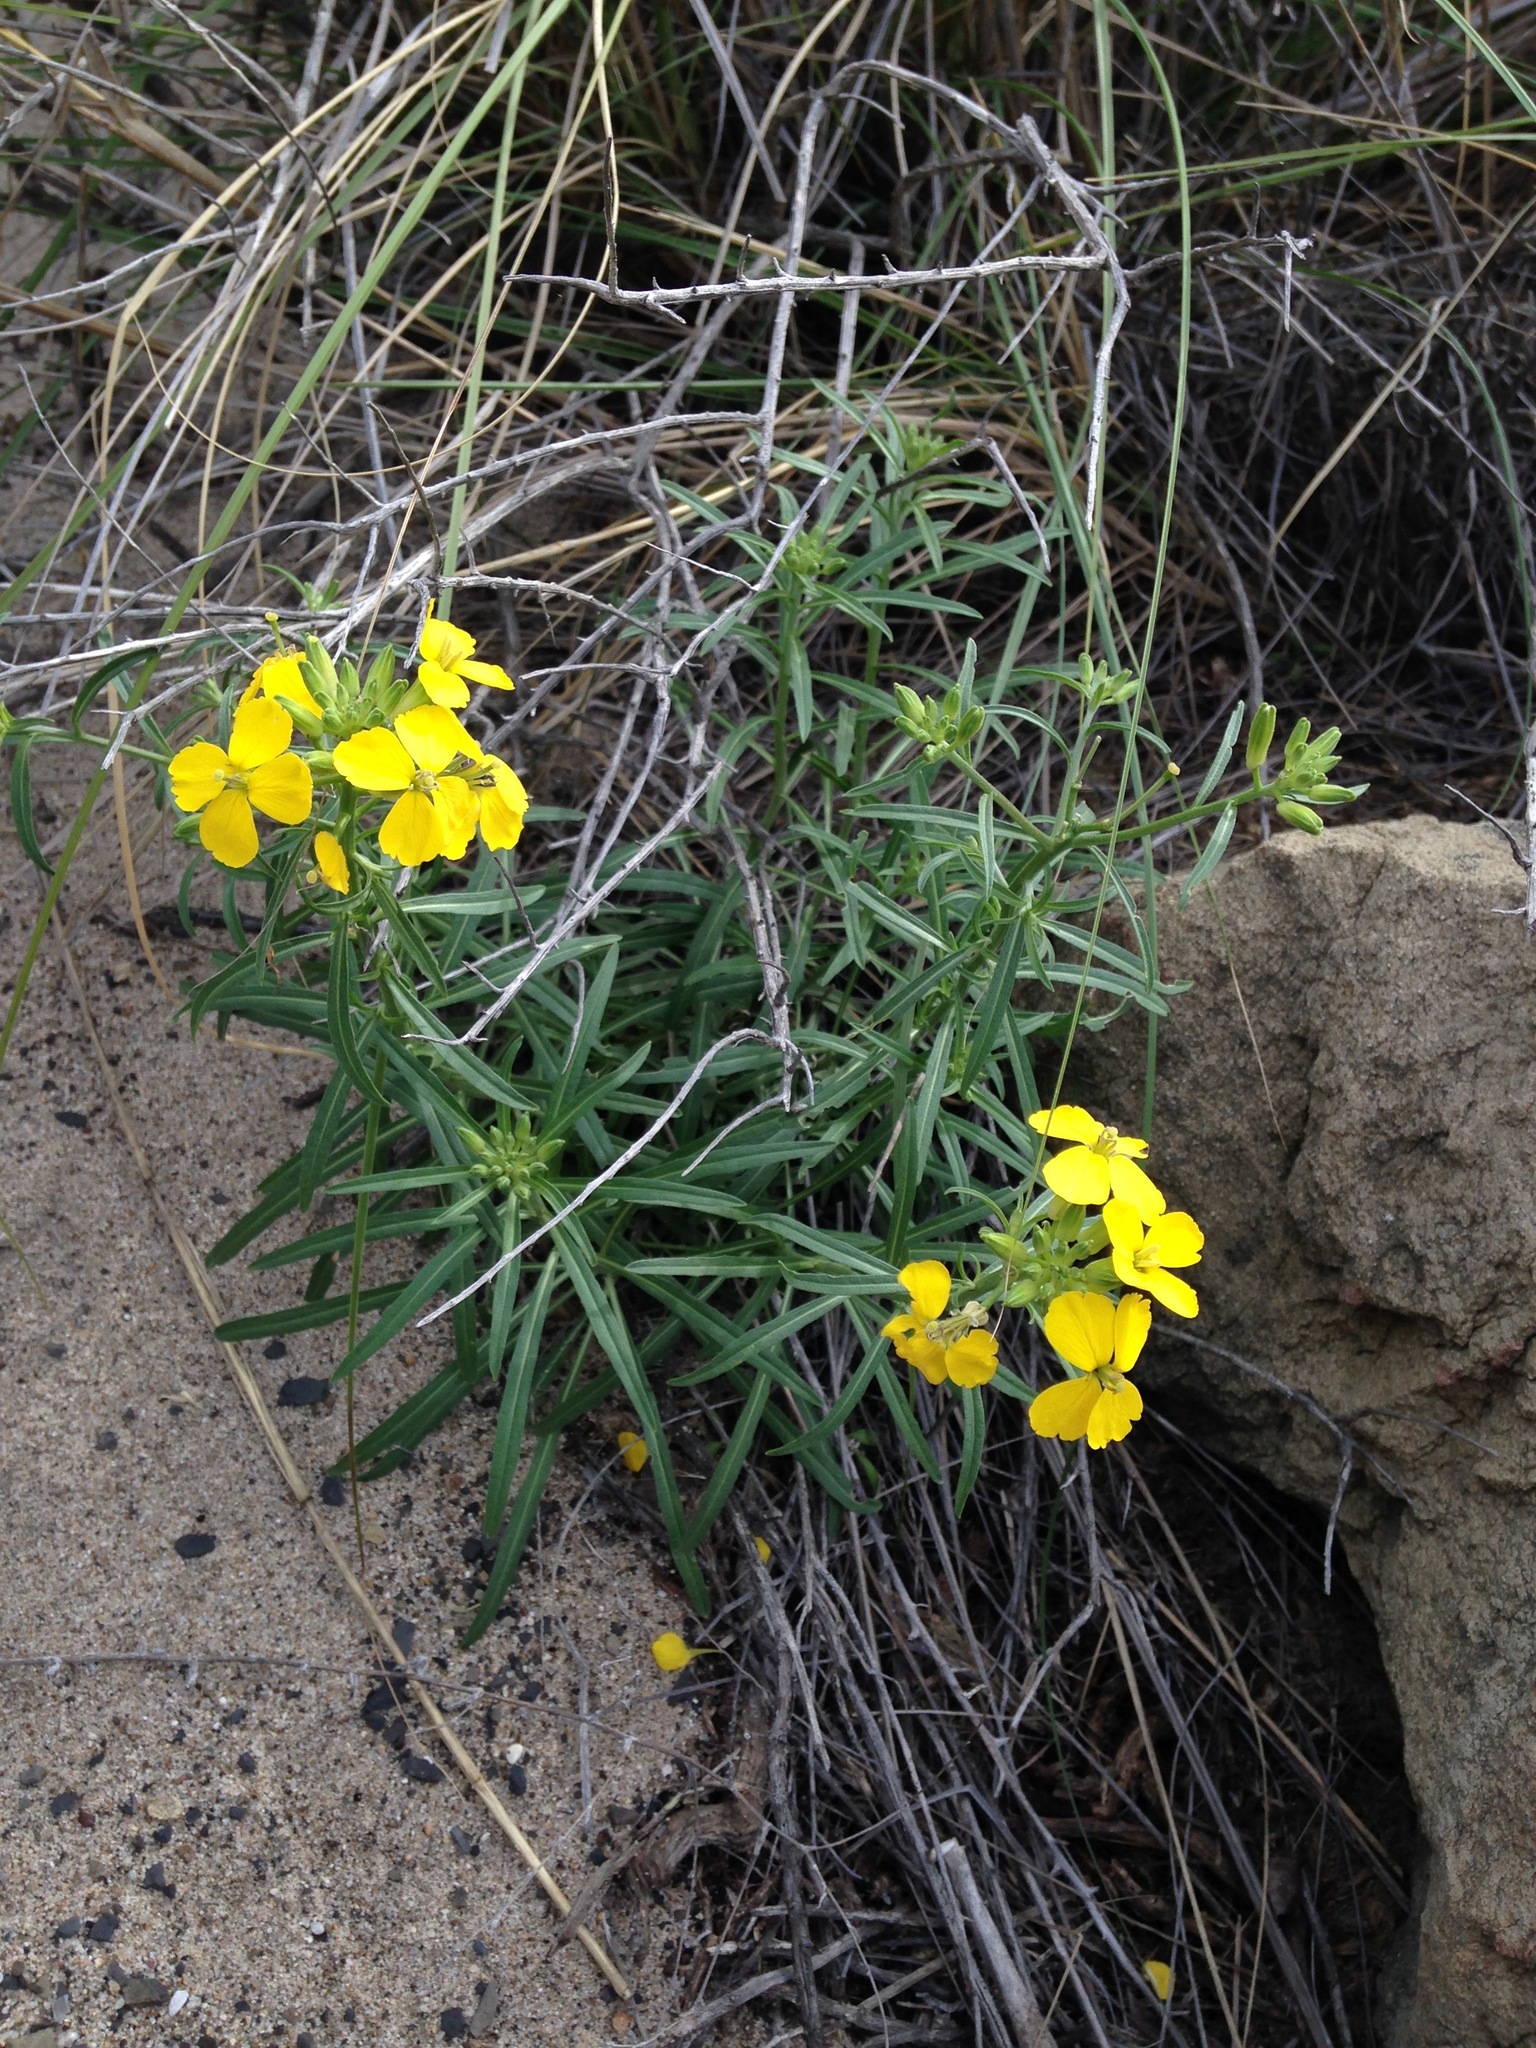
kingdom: Plantae
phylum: Tracheophyta
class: Magnoliopsida
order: Brassicales
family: Brassicaceae
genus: Erysimum
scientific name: Erysimum suffrutescens
